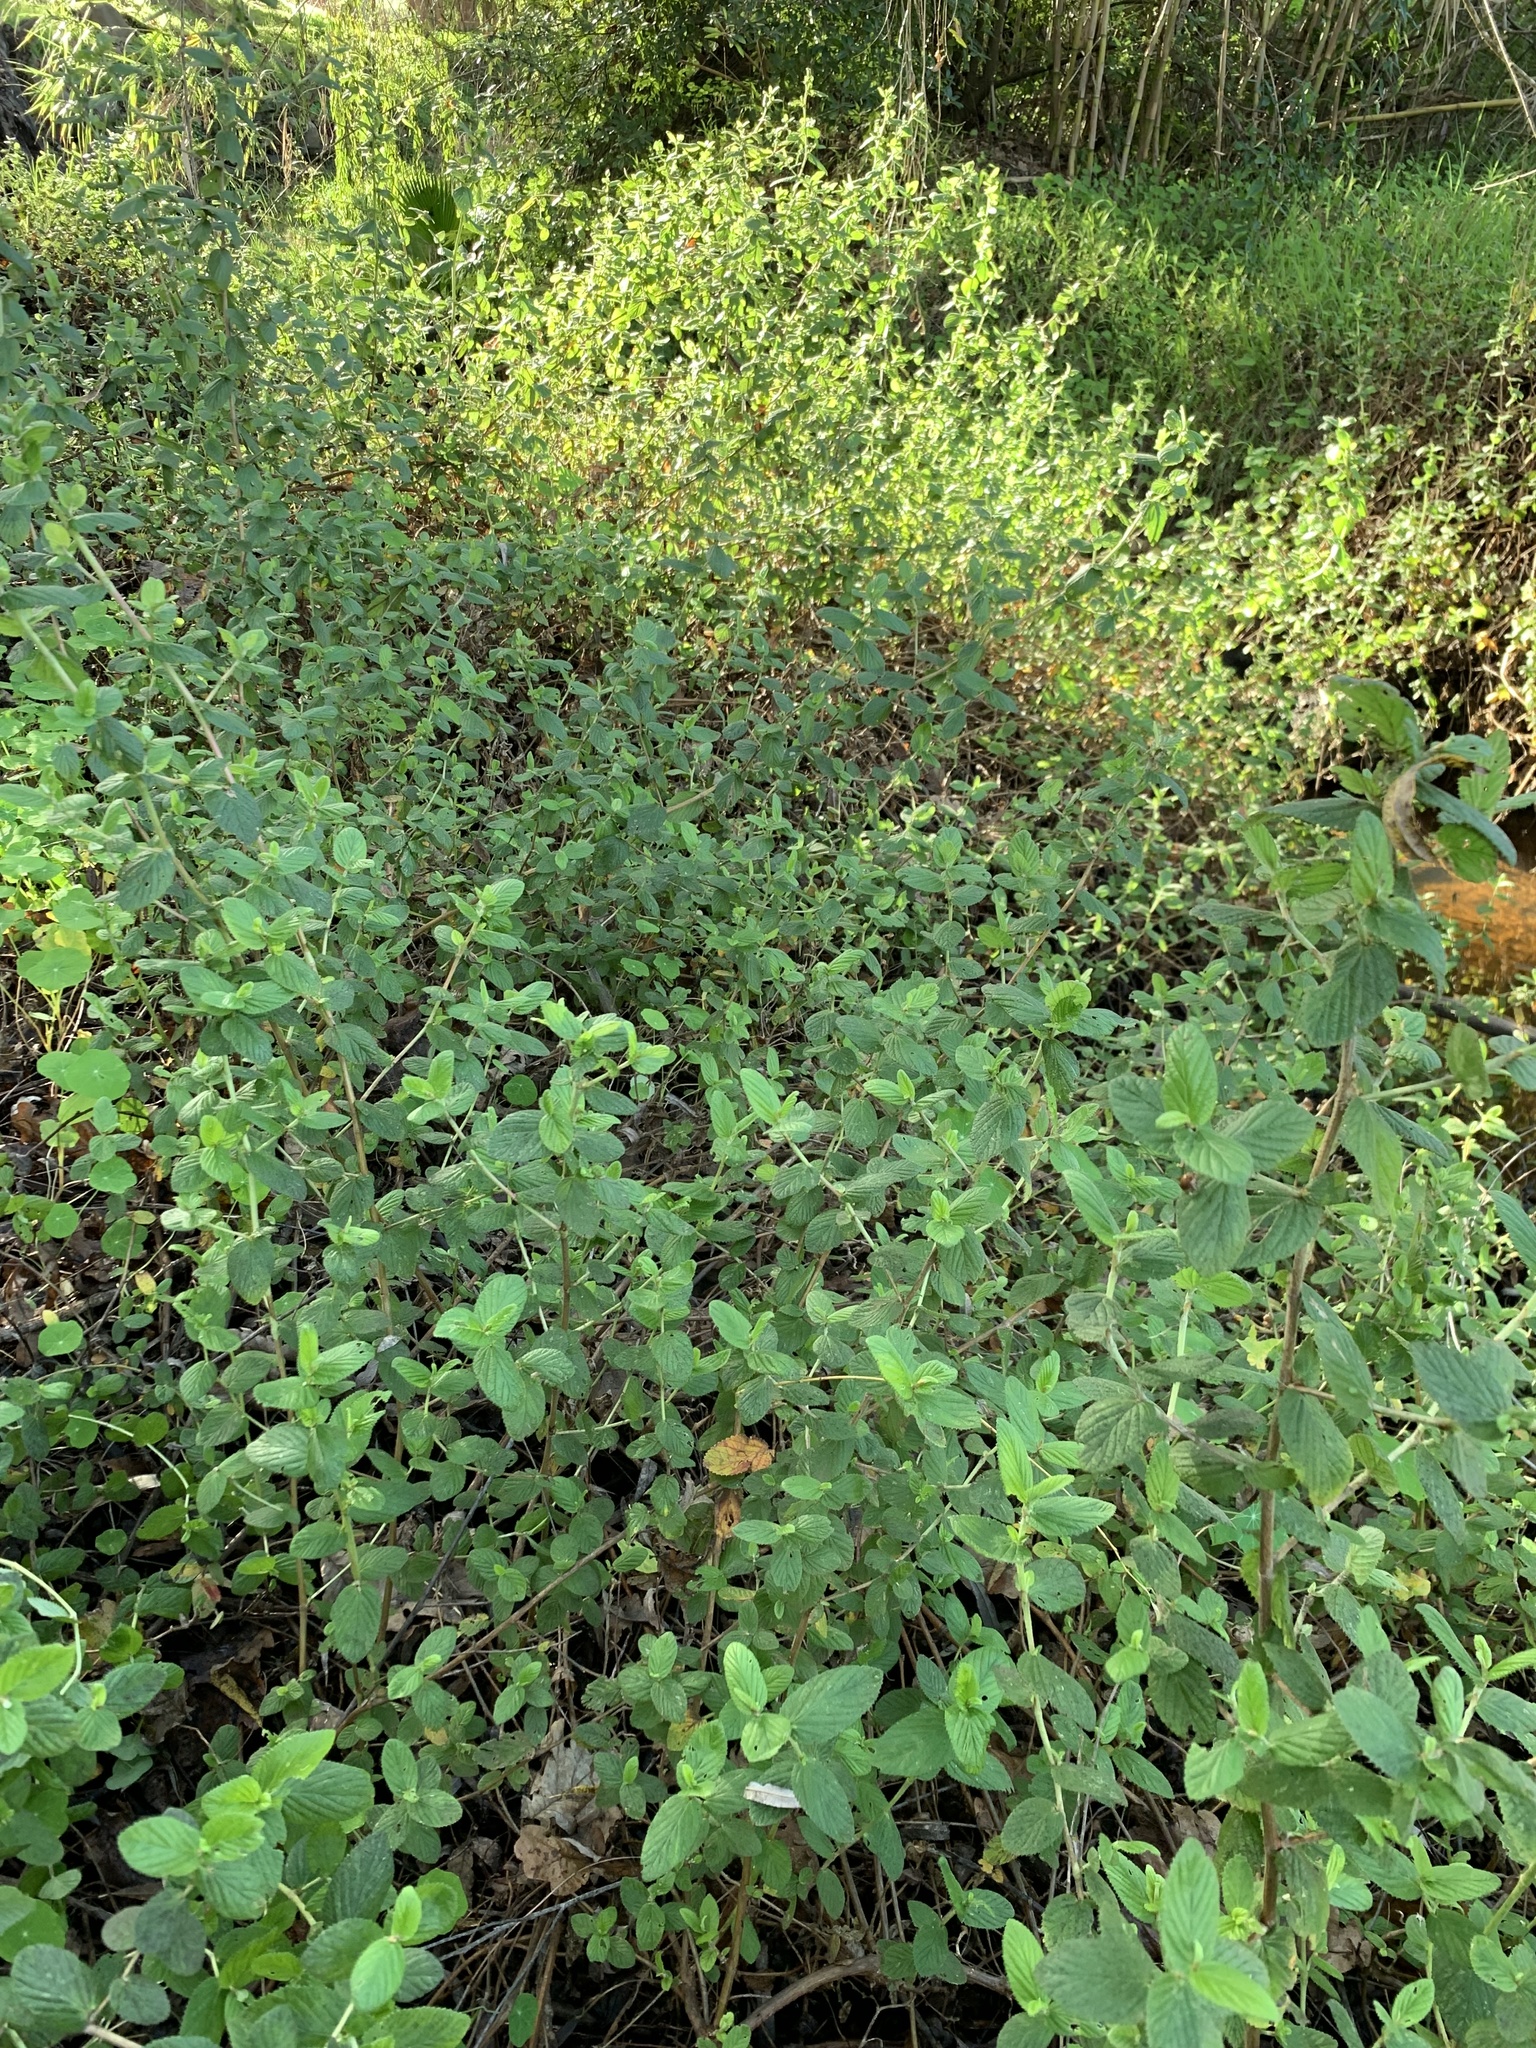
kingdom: Plantae
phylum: Tracheophyta
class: Magnoliopsida
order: Rosales
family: Rosaceae
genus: Cliffortia
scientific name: Cliffortia odorata
